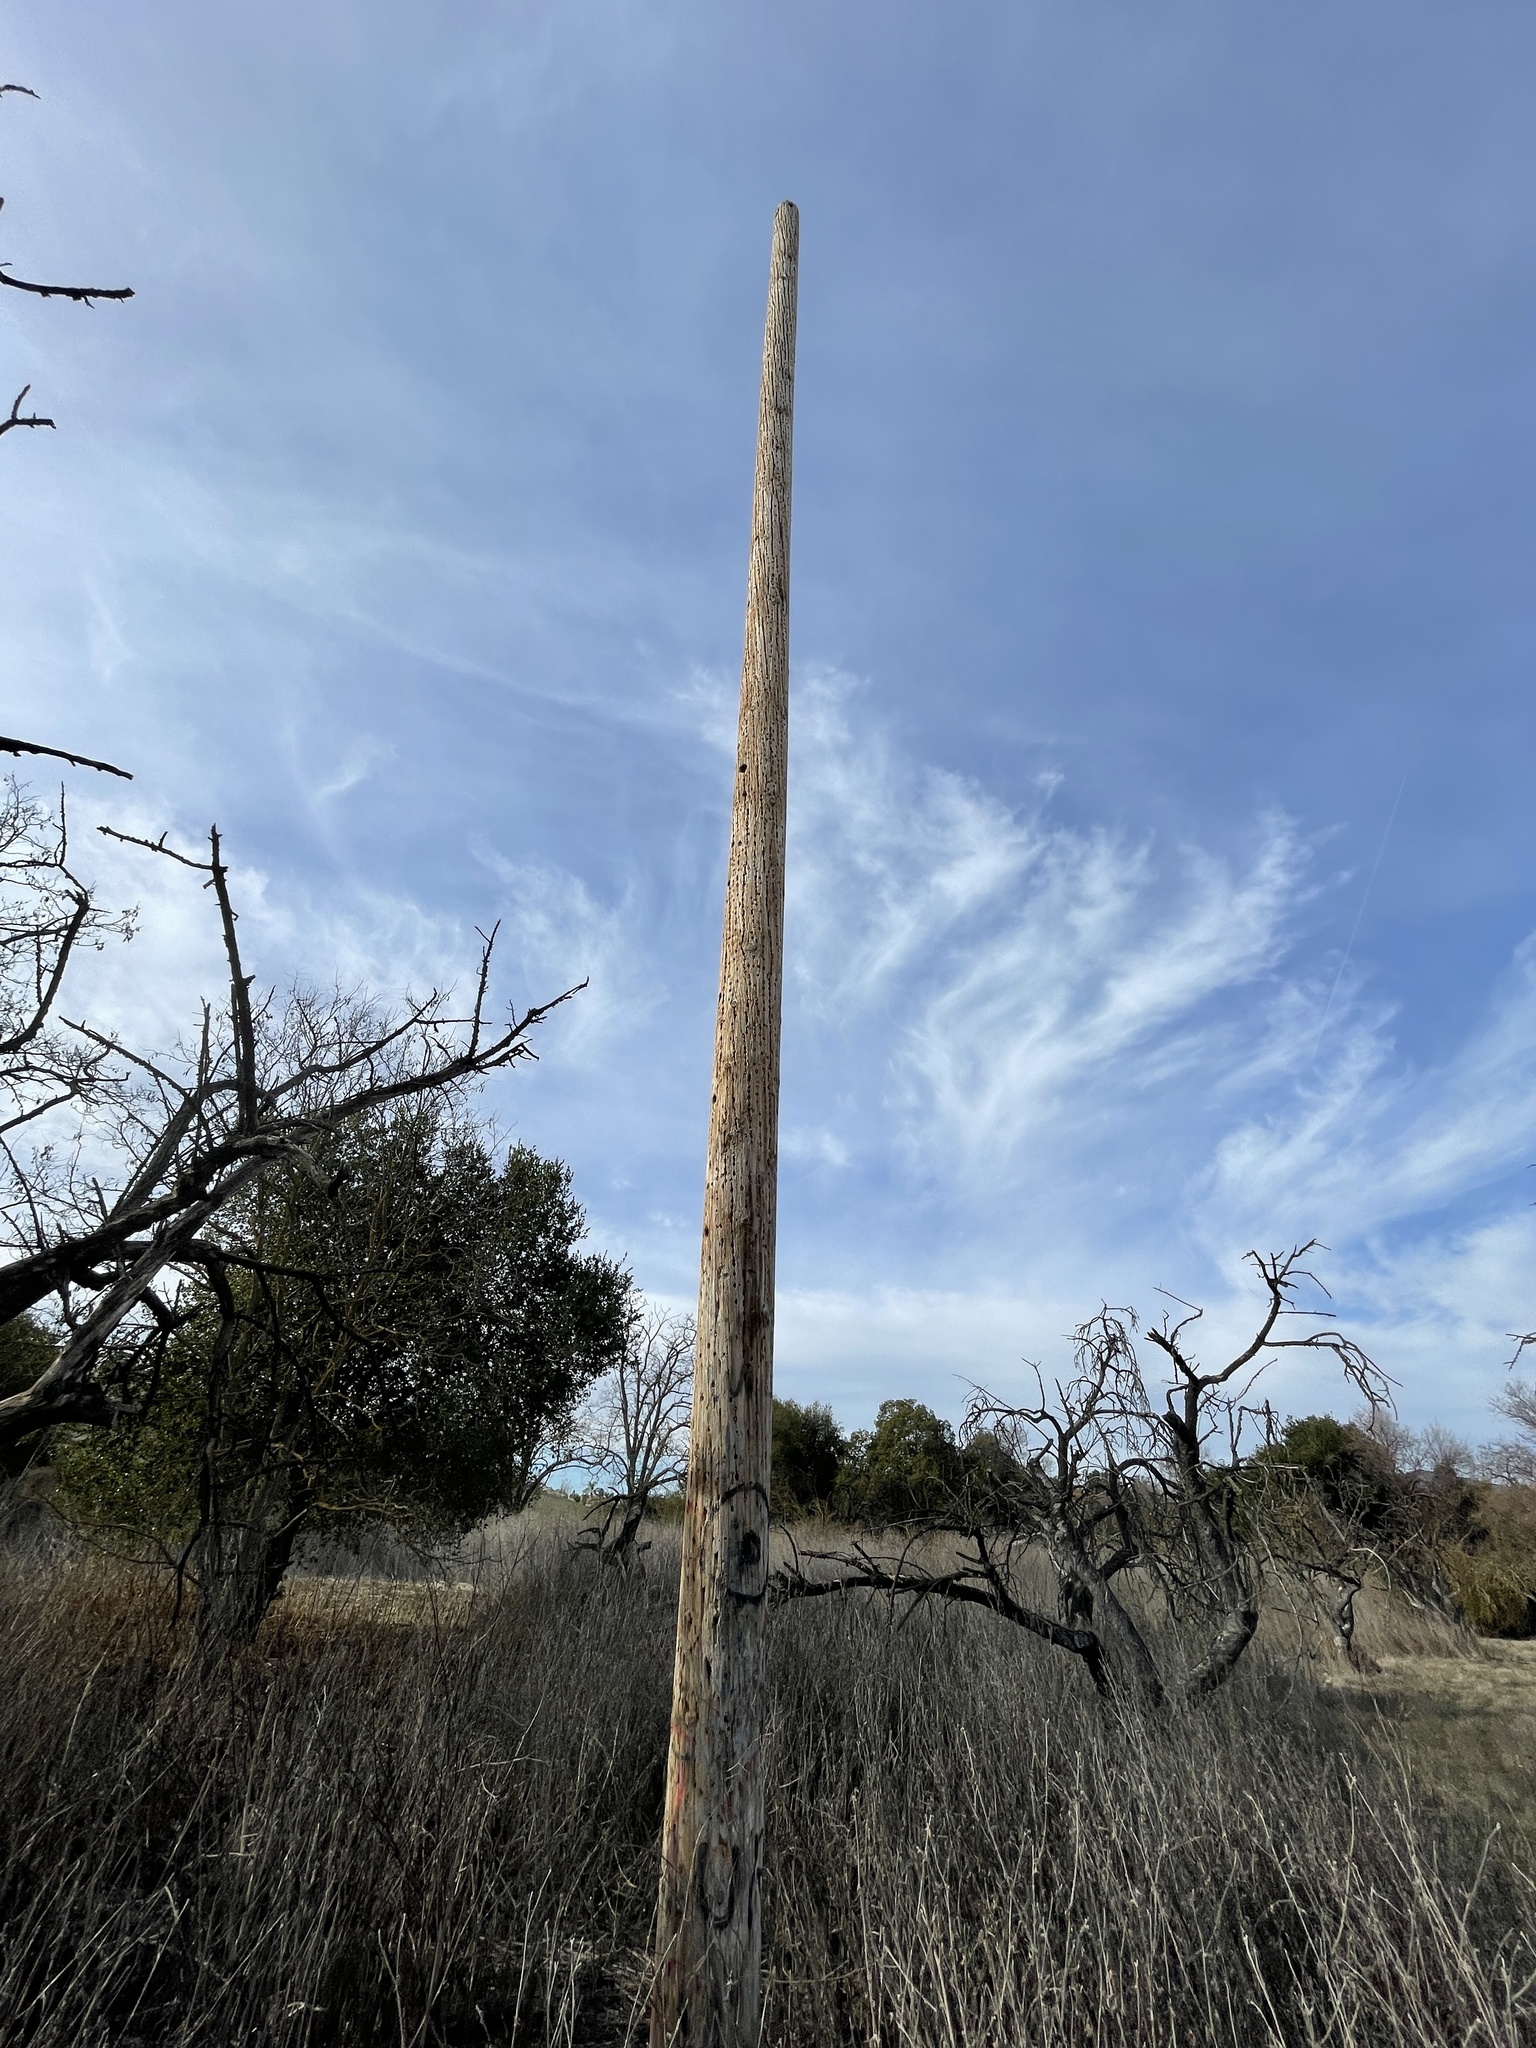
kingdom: Animalia
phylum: Chordata
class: Aves
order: Piciformes
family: Picidae
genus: Melanerpes
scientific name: Melanerpes formicivorus
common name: Acorn woodpecker
